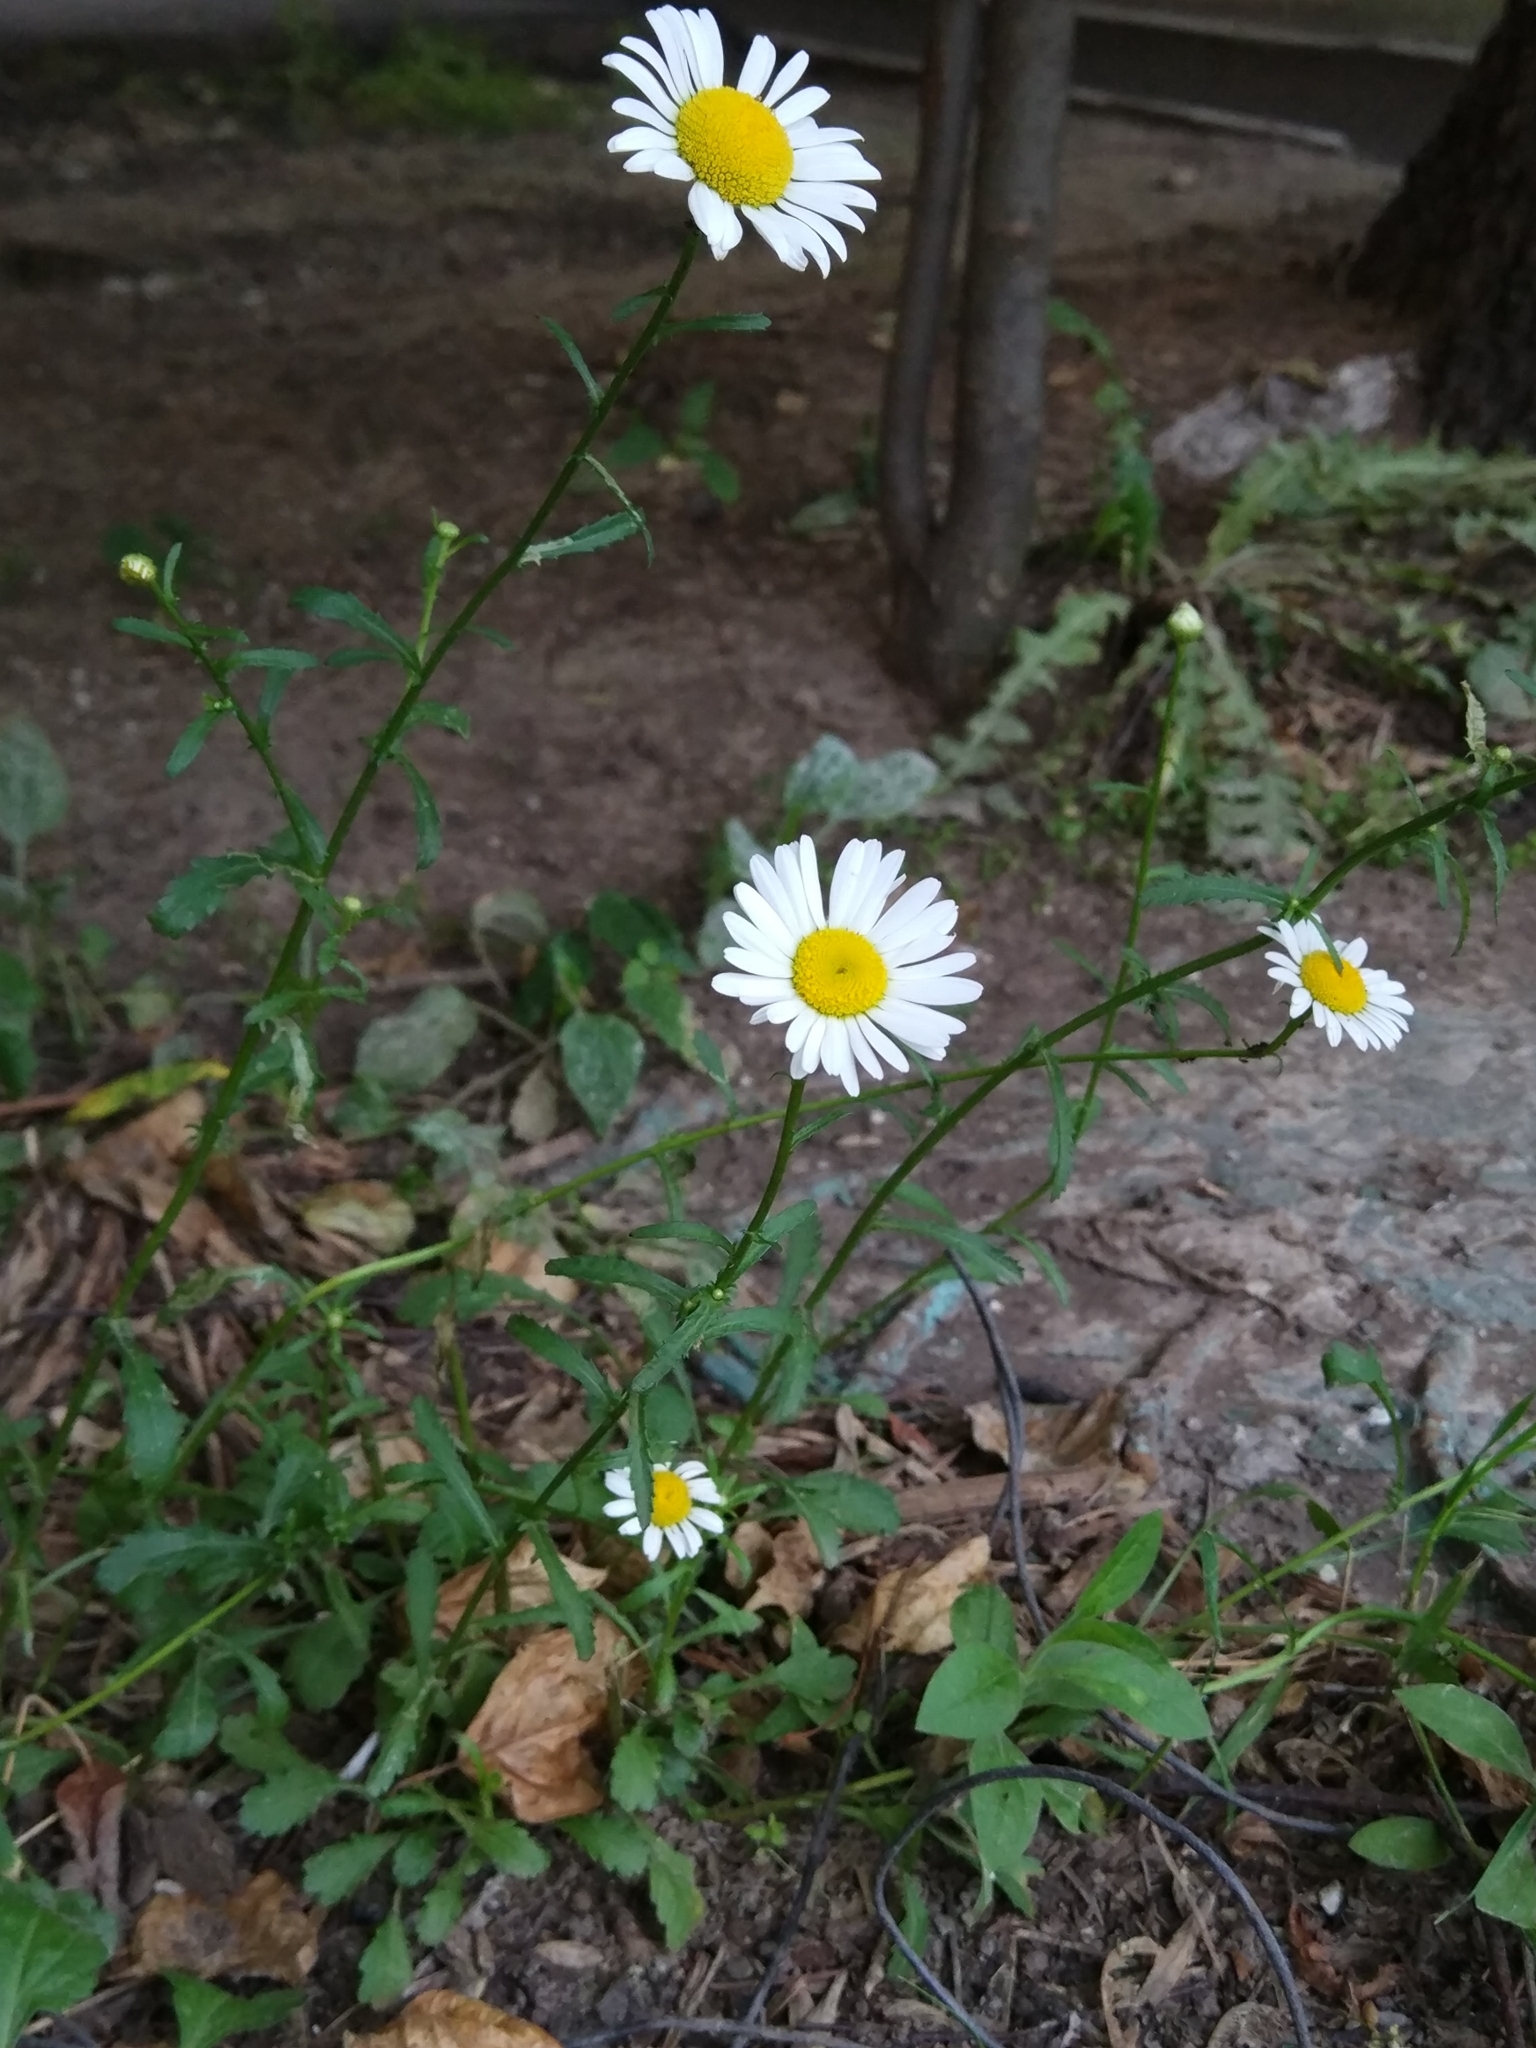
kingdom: Plantae
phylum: Tracheophyta
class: Magnoliopsida
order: Asterales
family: Asteraceae
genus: Leucanthemum
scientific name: Leucanthemum vulgare
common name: Oxeye daisy
